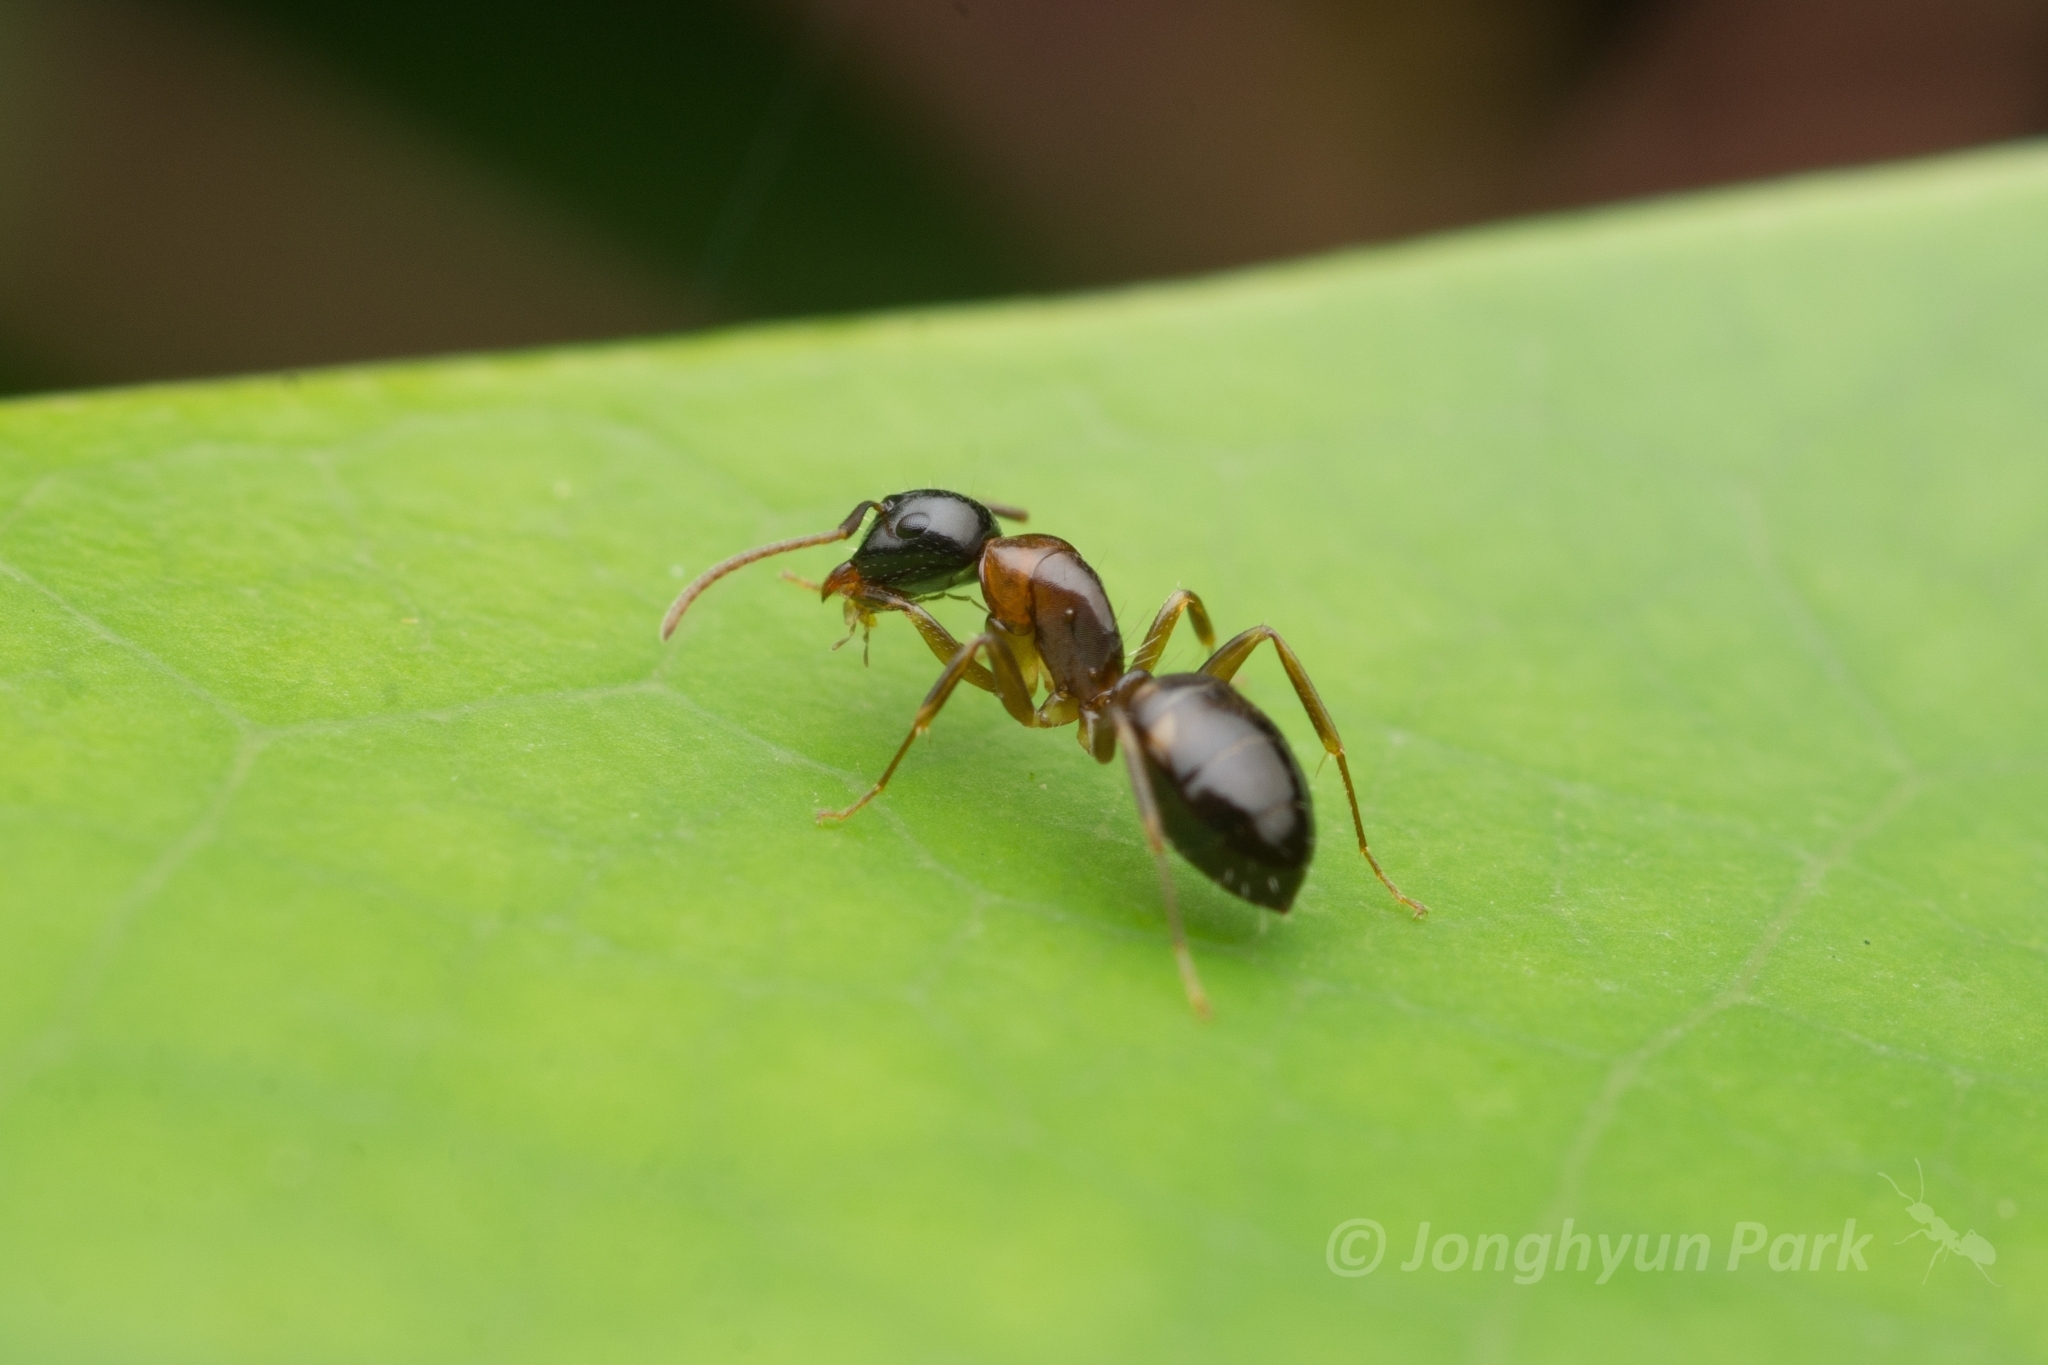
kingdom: Animalia
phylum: Arthropoda
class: Insecta
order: Hymenoptera
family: Formicidae
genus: Camponotus
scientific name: Camponotus yamaokai
